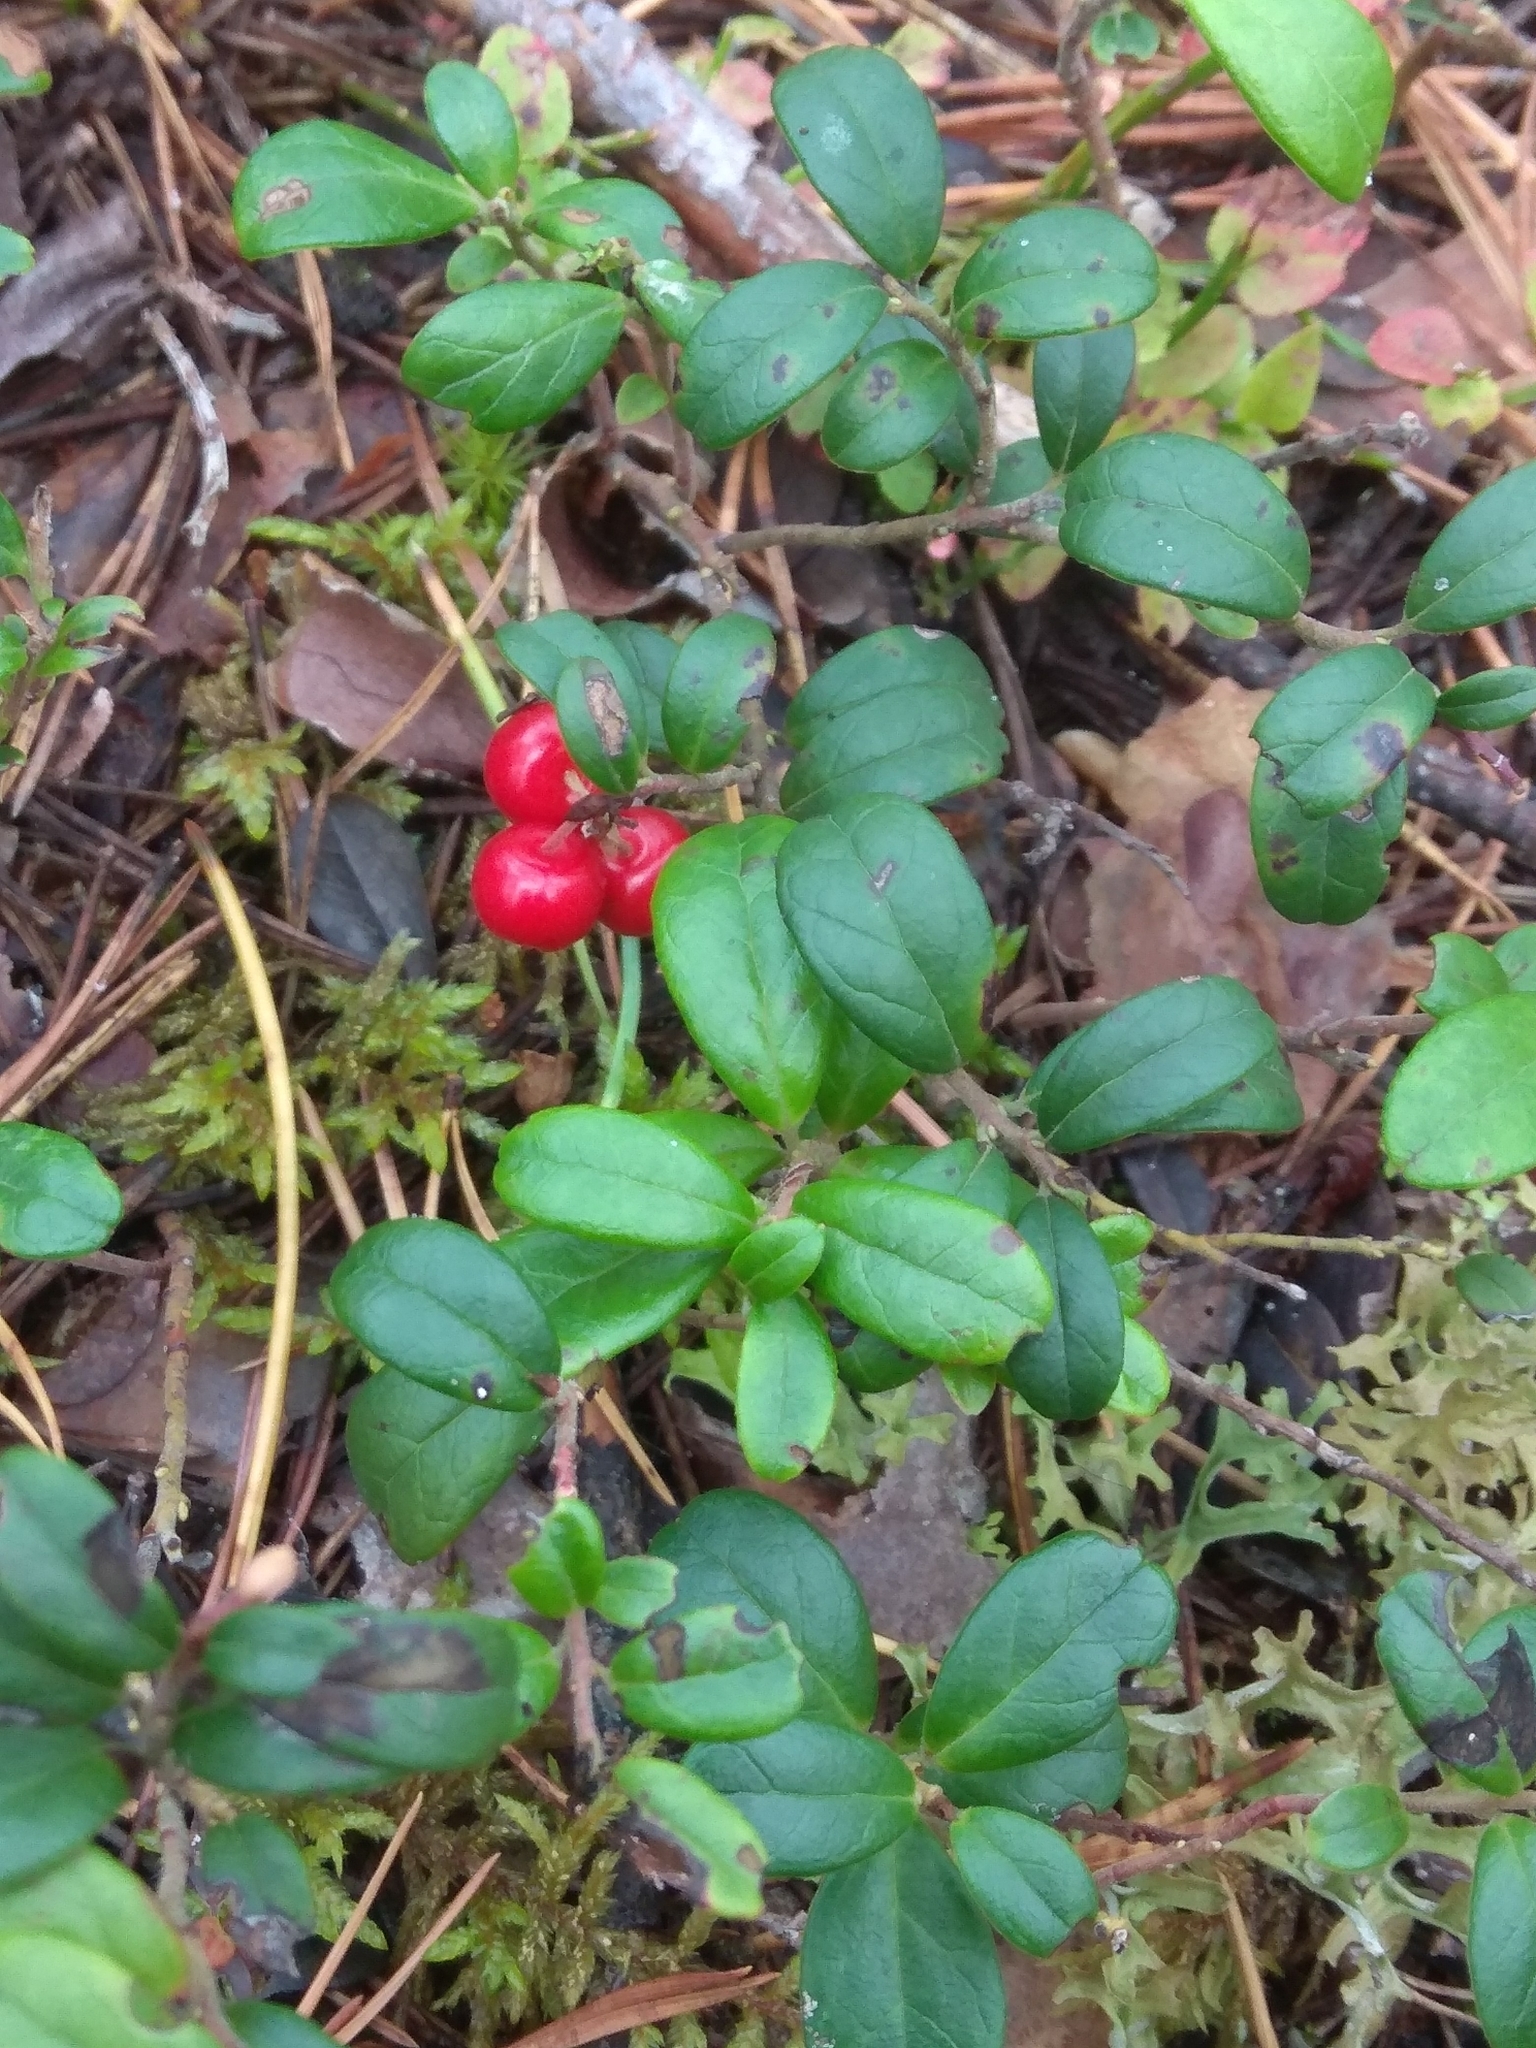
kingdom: Plantae
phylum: Tracheophyta
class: Magnoliopsida
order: Ericales
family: Ericaceae
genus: Vaccinium
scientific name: Vaccinium vitis-idaea
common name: Cowberry
